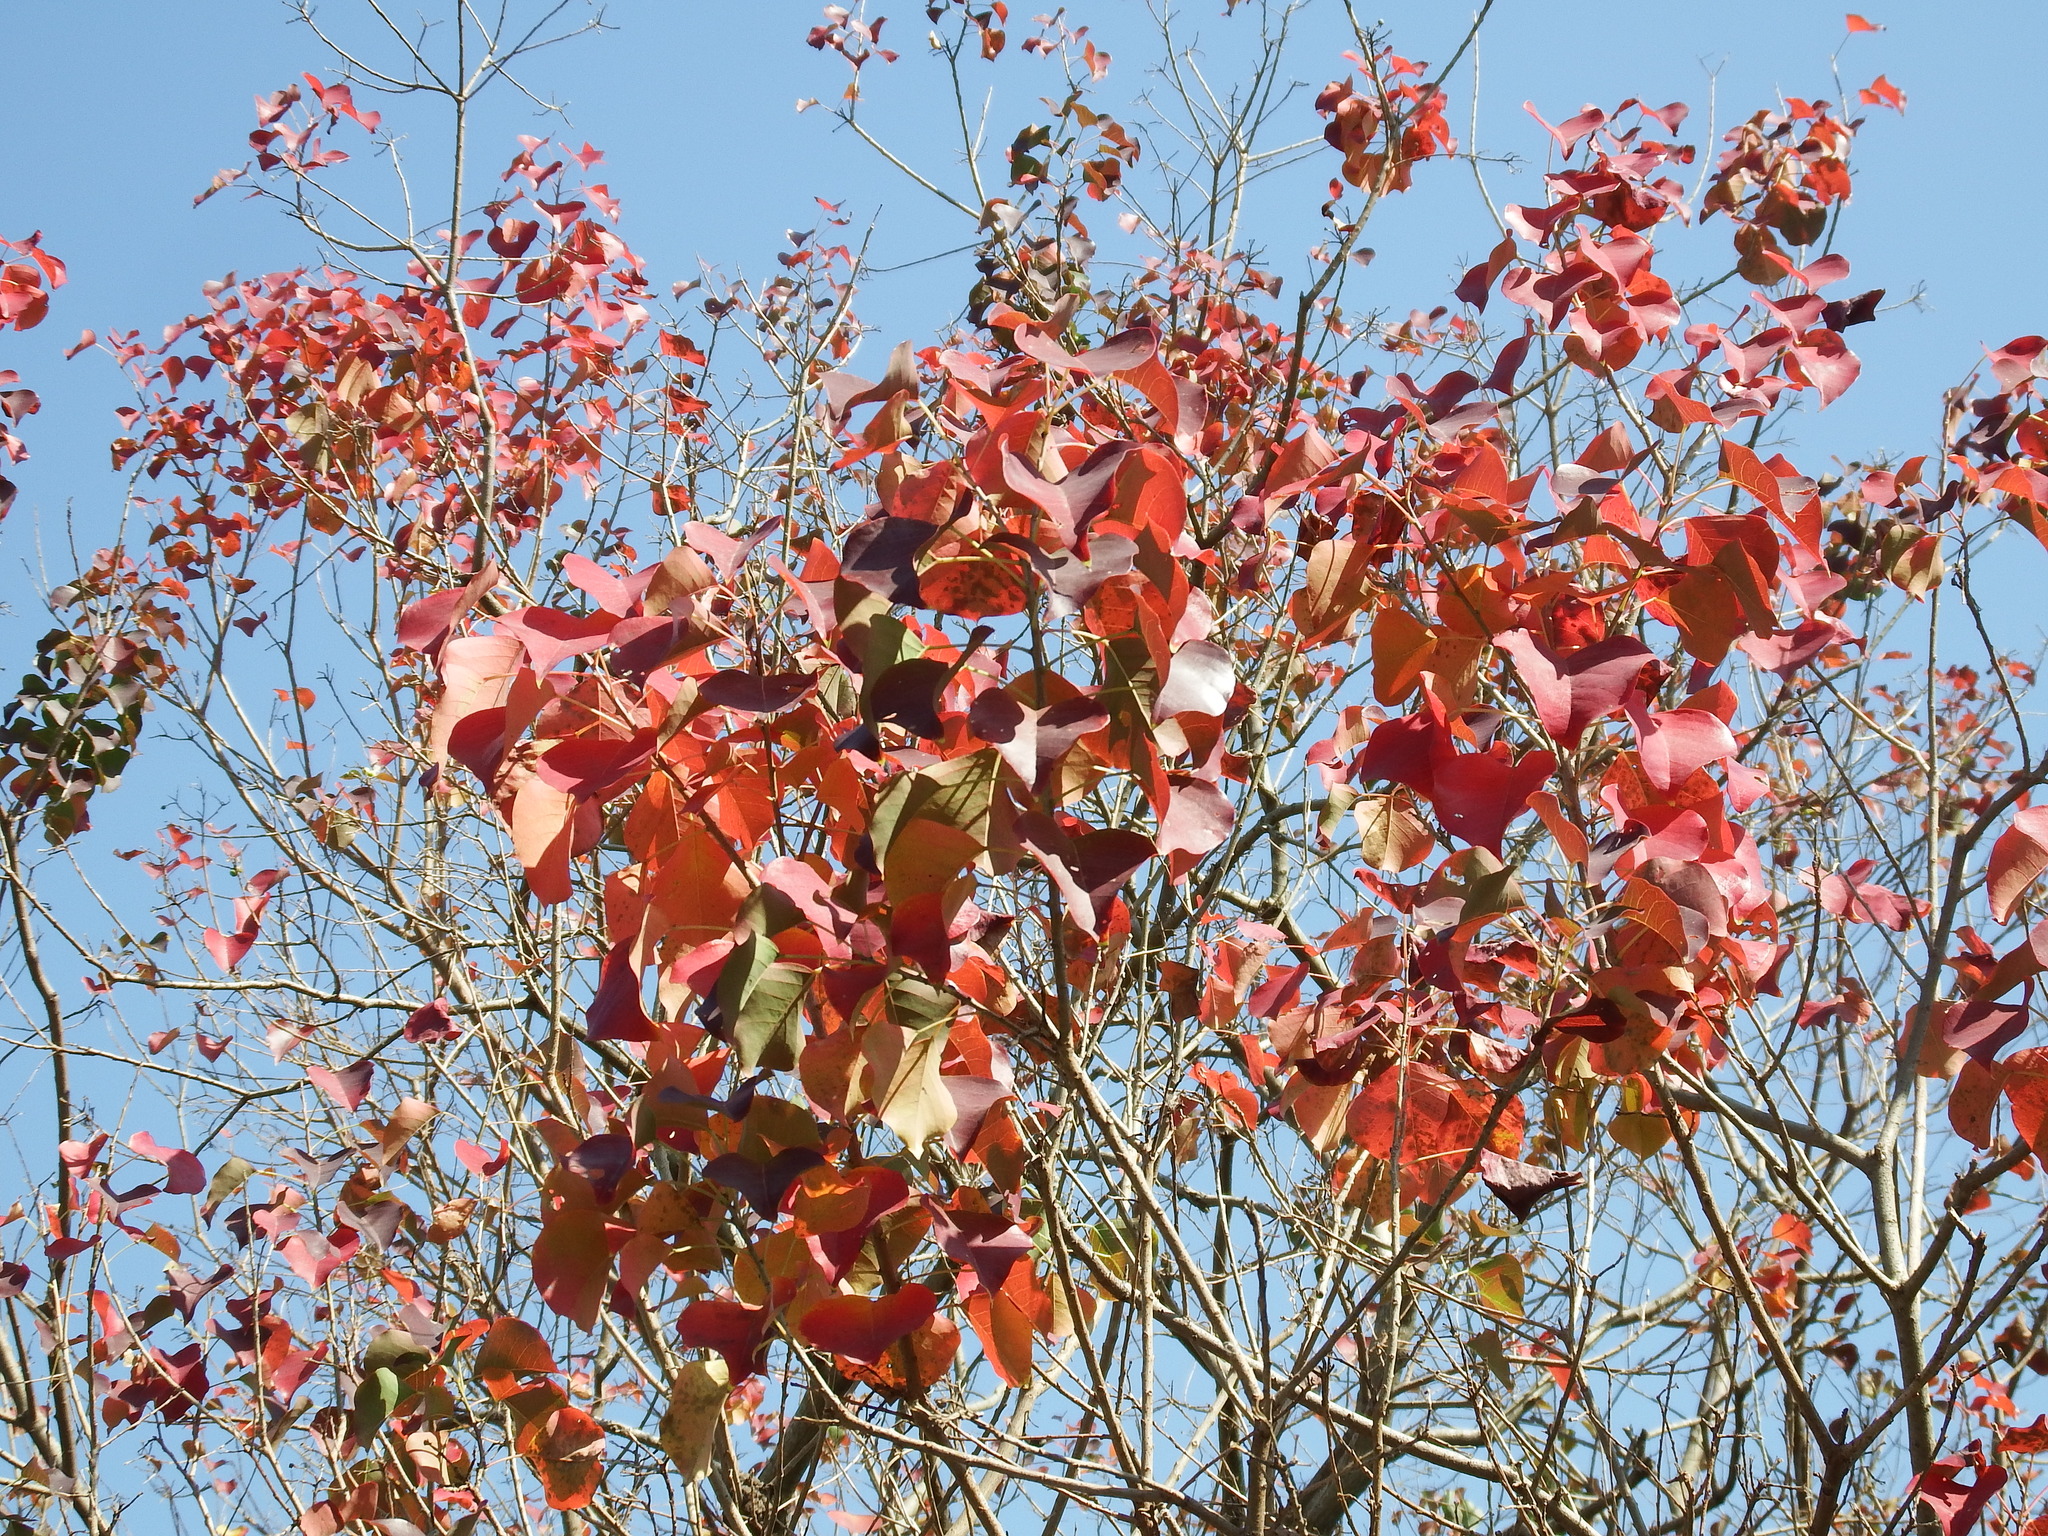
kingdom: Plantae
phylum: Tracheophyta
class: Magnoliopsida
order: Malpighiales
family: Euphorbiaceae
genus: Triadica
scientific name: Triadica sebifera
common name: Chinese tallow
